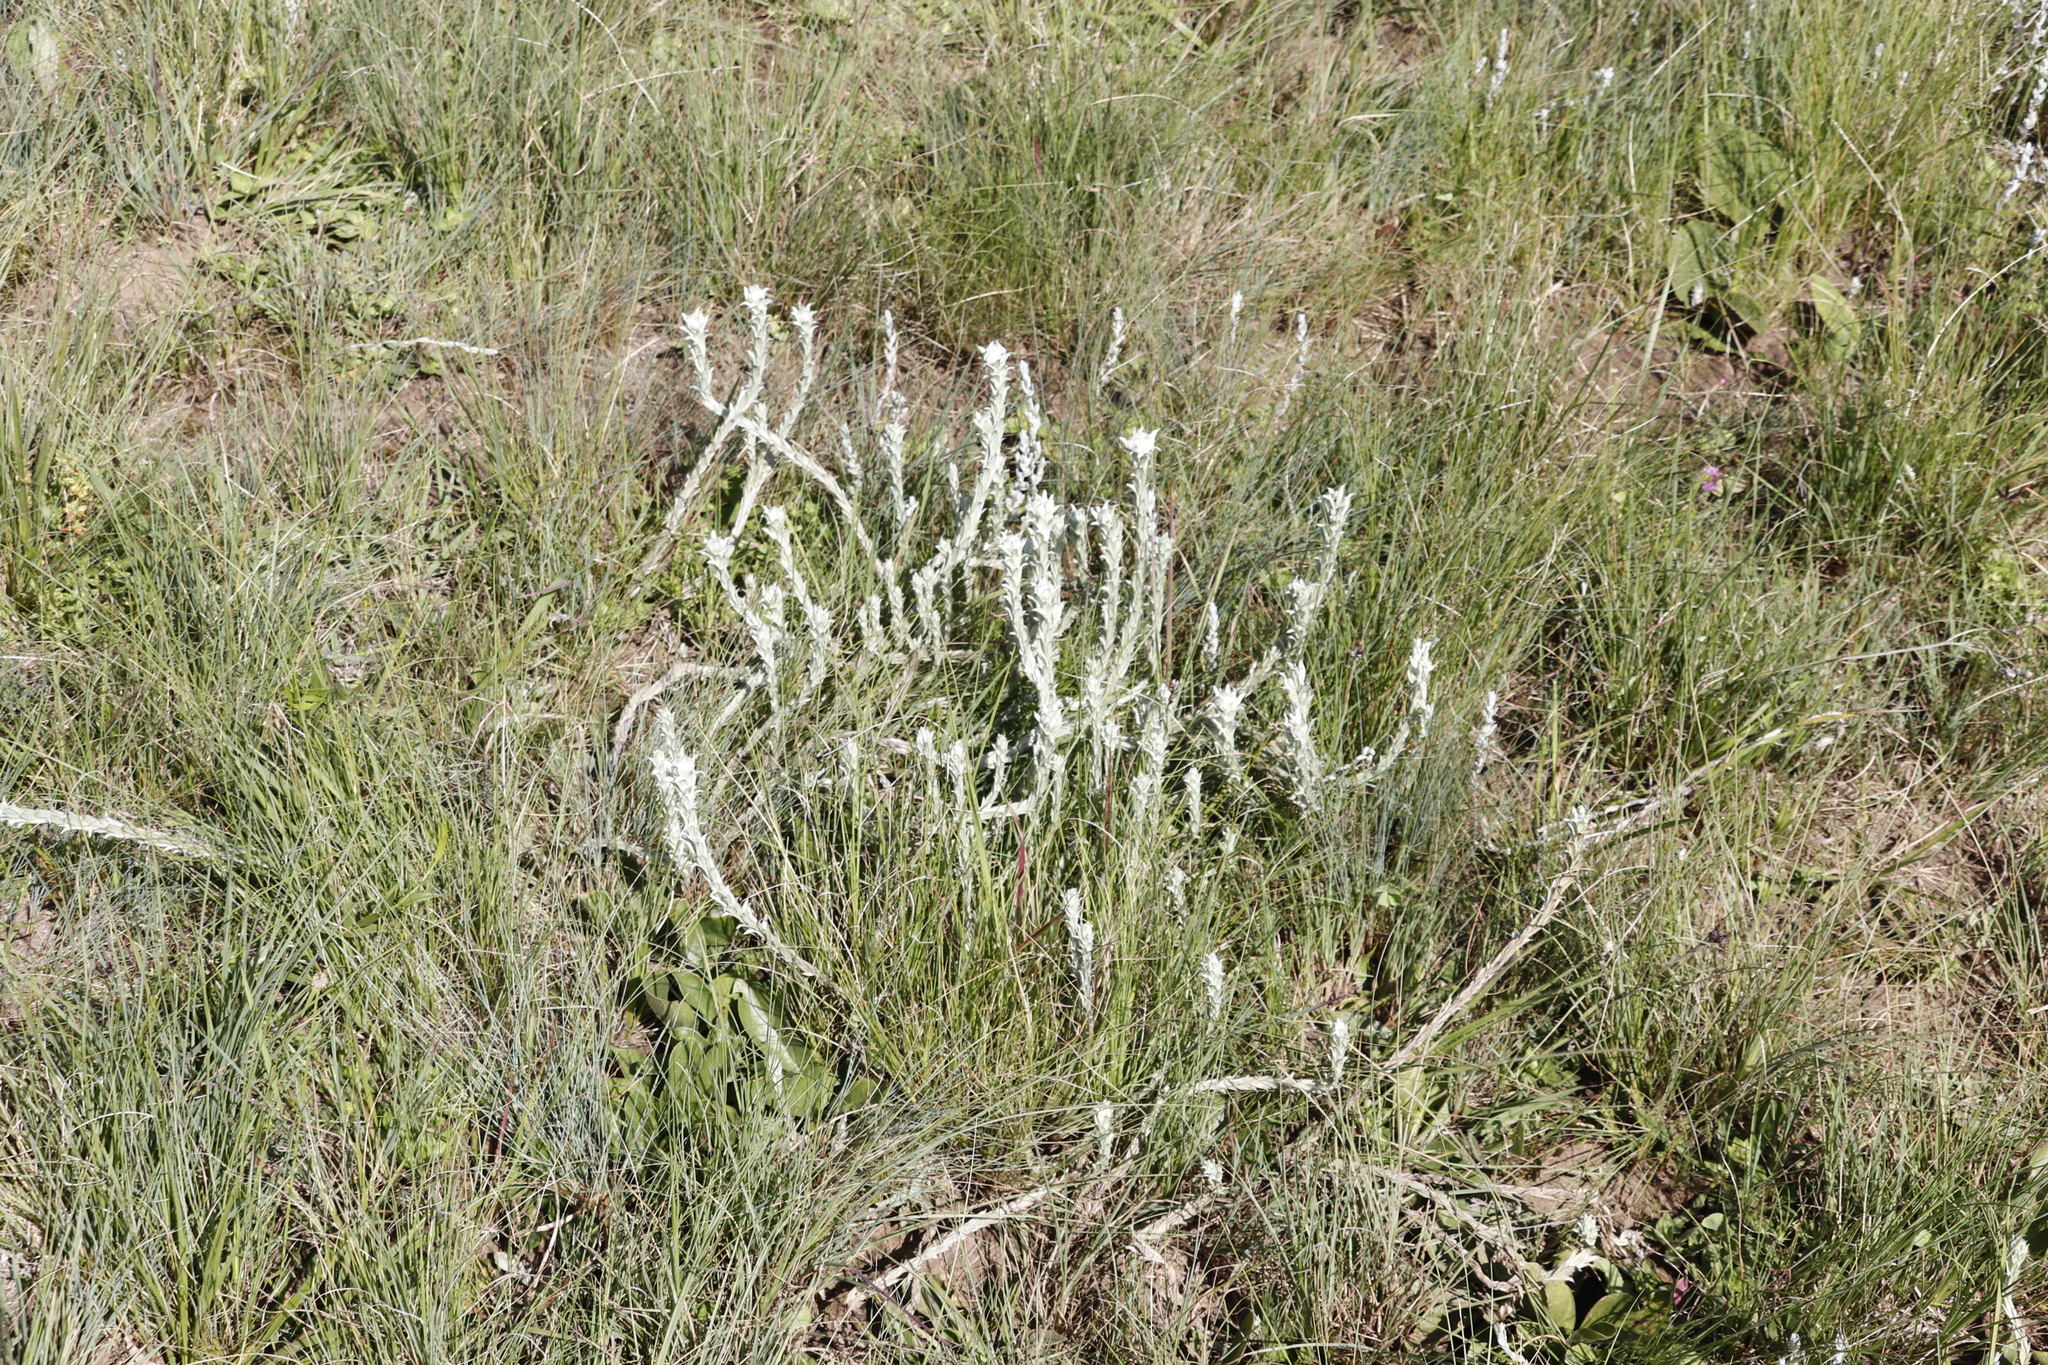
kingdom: Plantae
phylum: Tracheophyta
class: Magnoliopsida
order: Asterales
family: Asteraceae
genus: Helichrysum
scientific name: Helichrysum glomeratum
